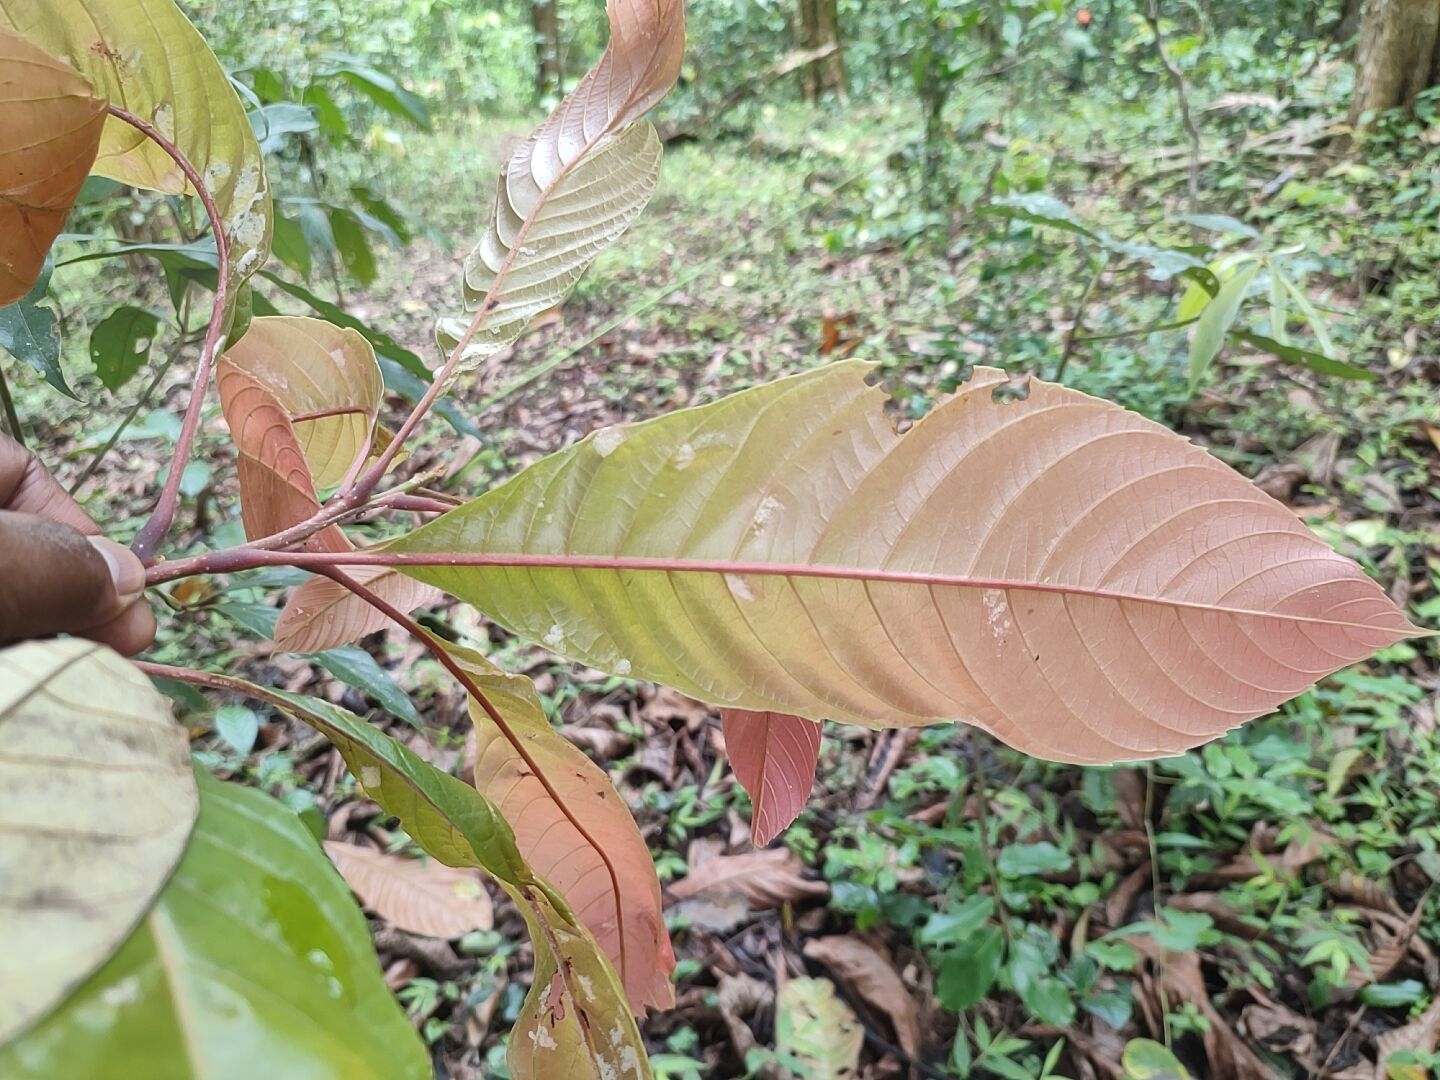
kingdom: Plantae
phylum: Tracheophyta
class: Magnoliopsida
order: Proteales
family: Sabiaceae
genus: Meliosma
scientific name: Meliosma simplicifolia
